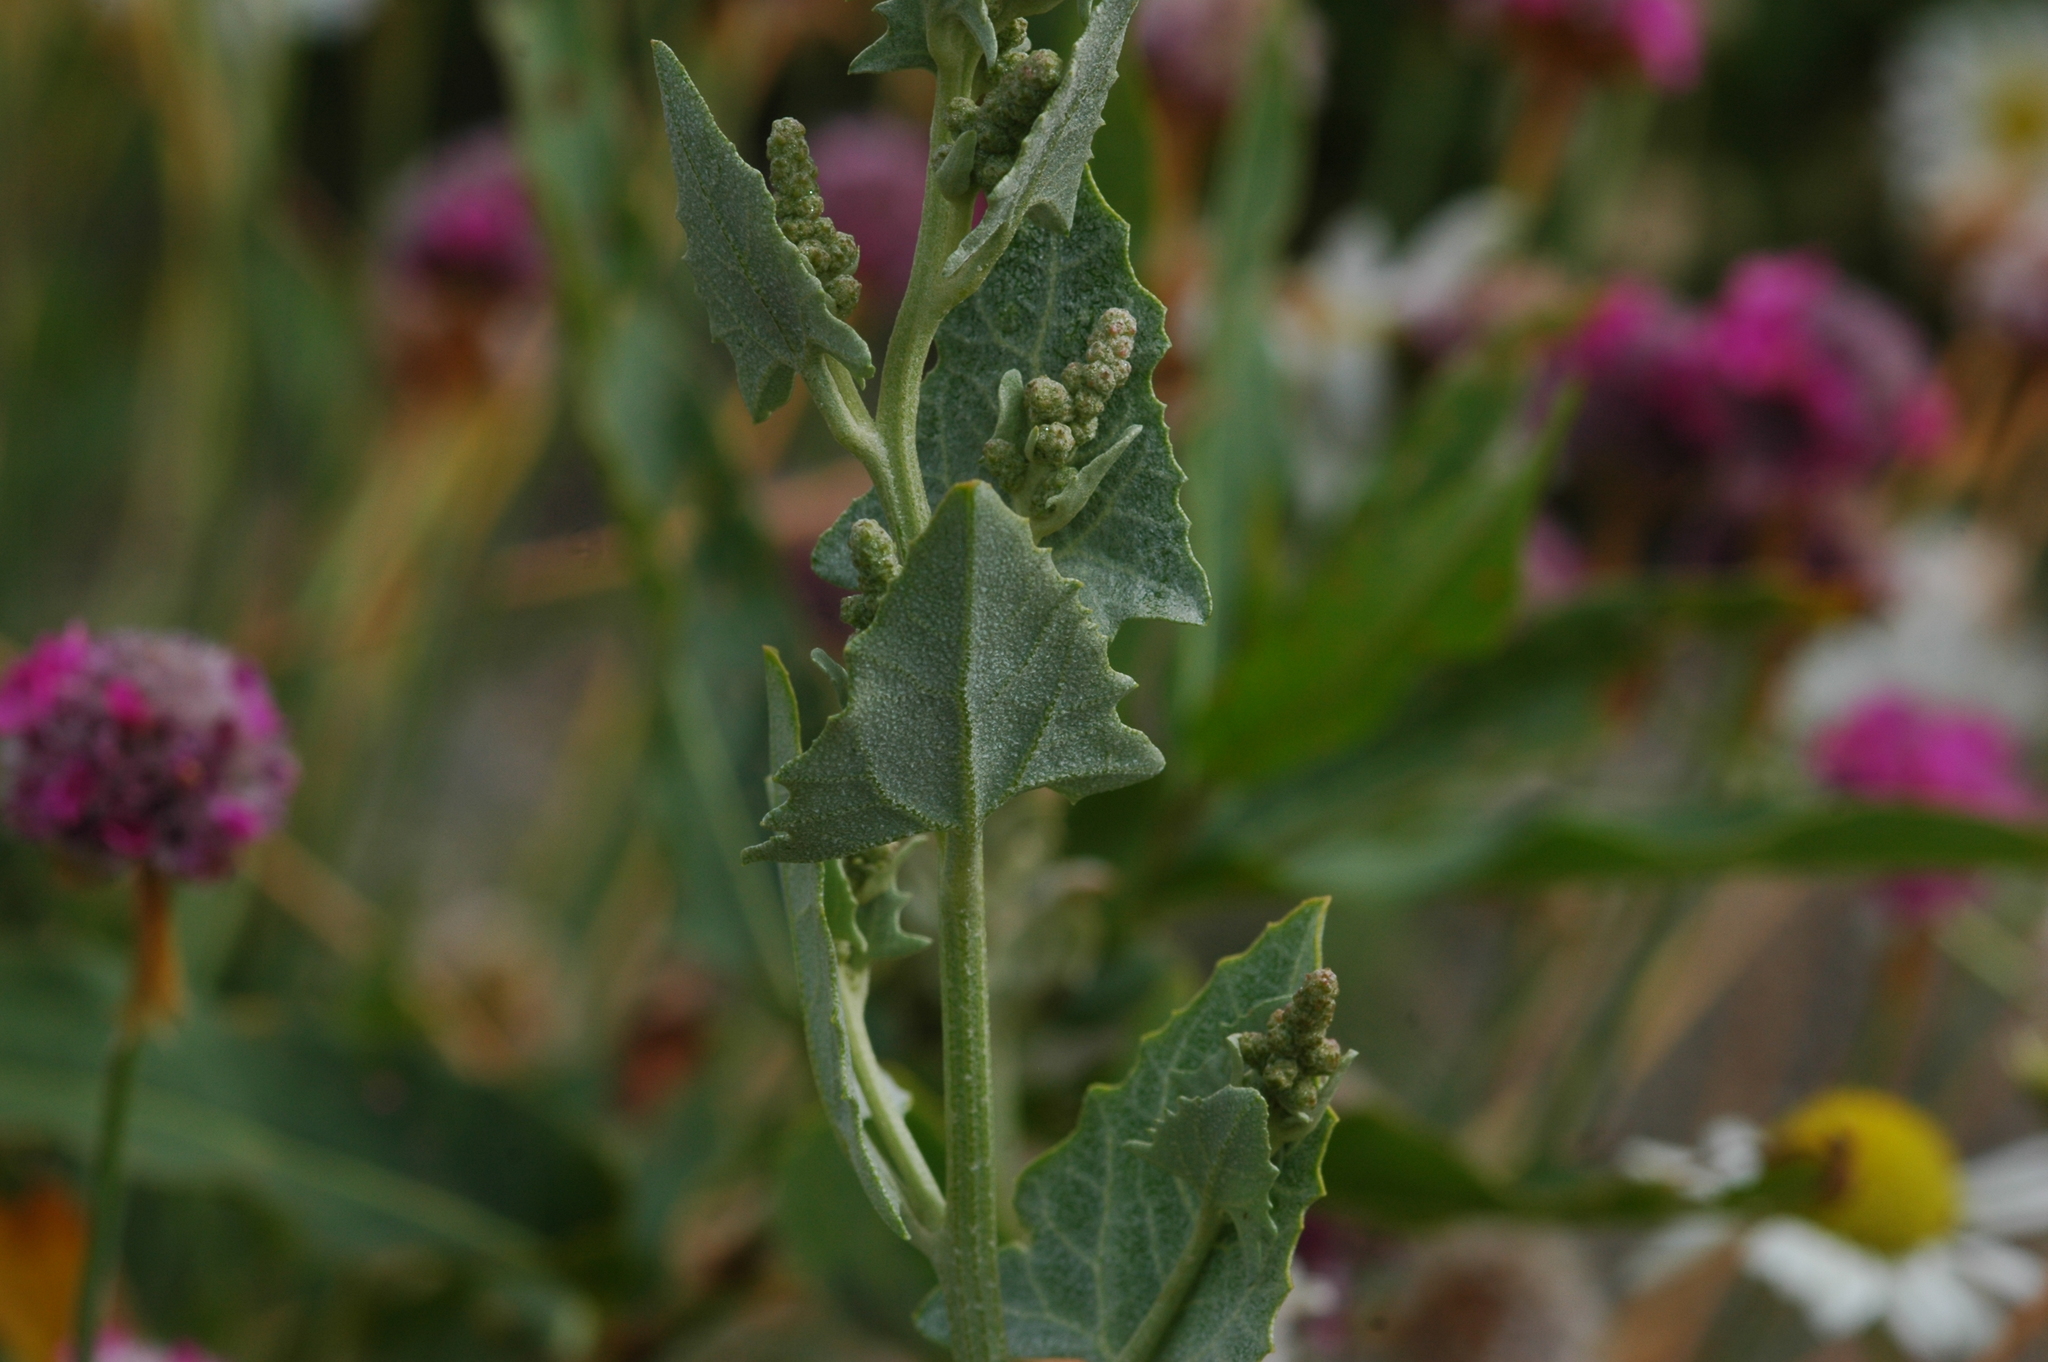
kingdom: Plantae
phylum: Tracheophyta
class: Magnoliopsida
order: Caryophyllales
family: Amaranthaceae
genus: Atriplex
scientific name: Atriplex prostrata
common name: Spear-leaved orache
